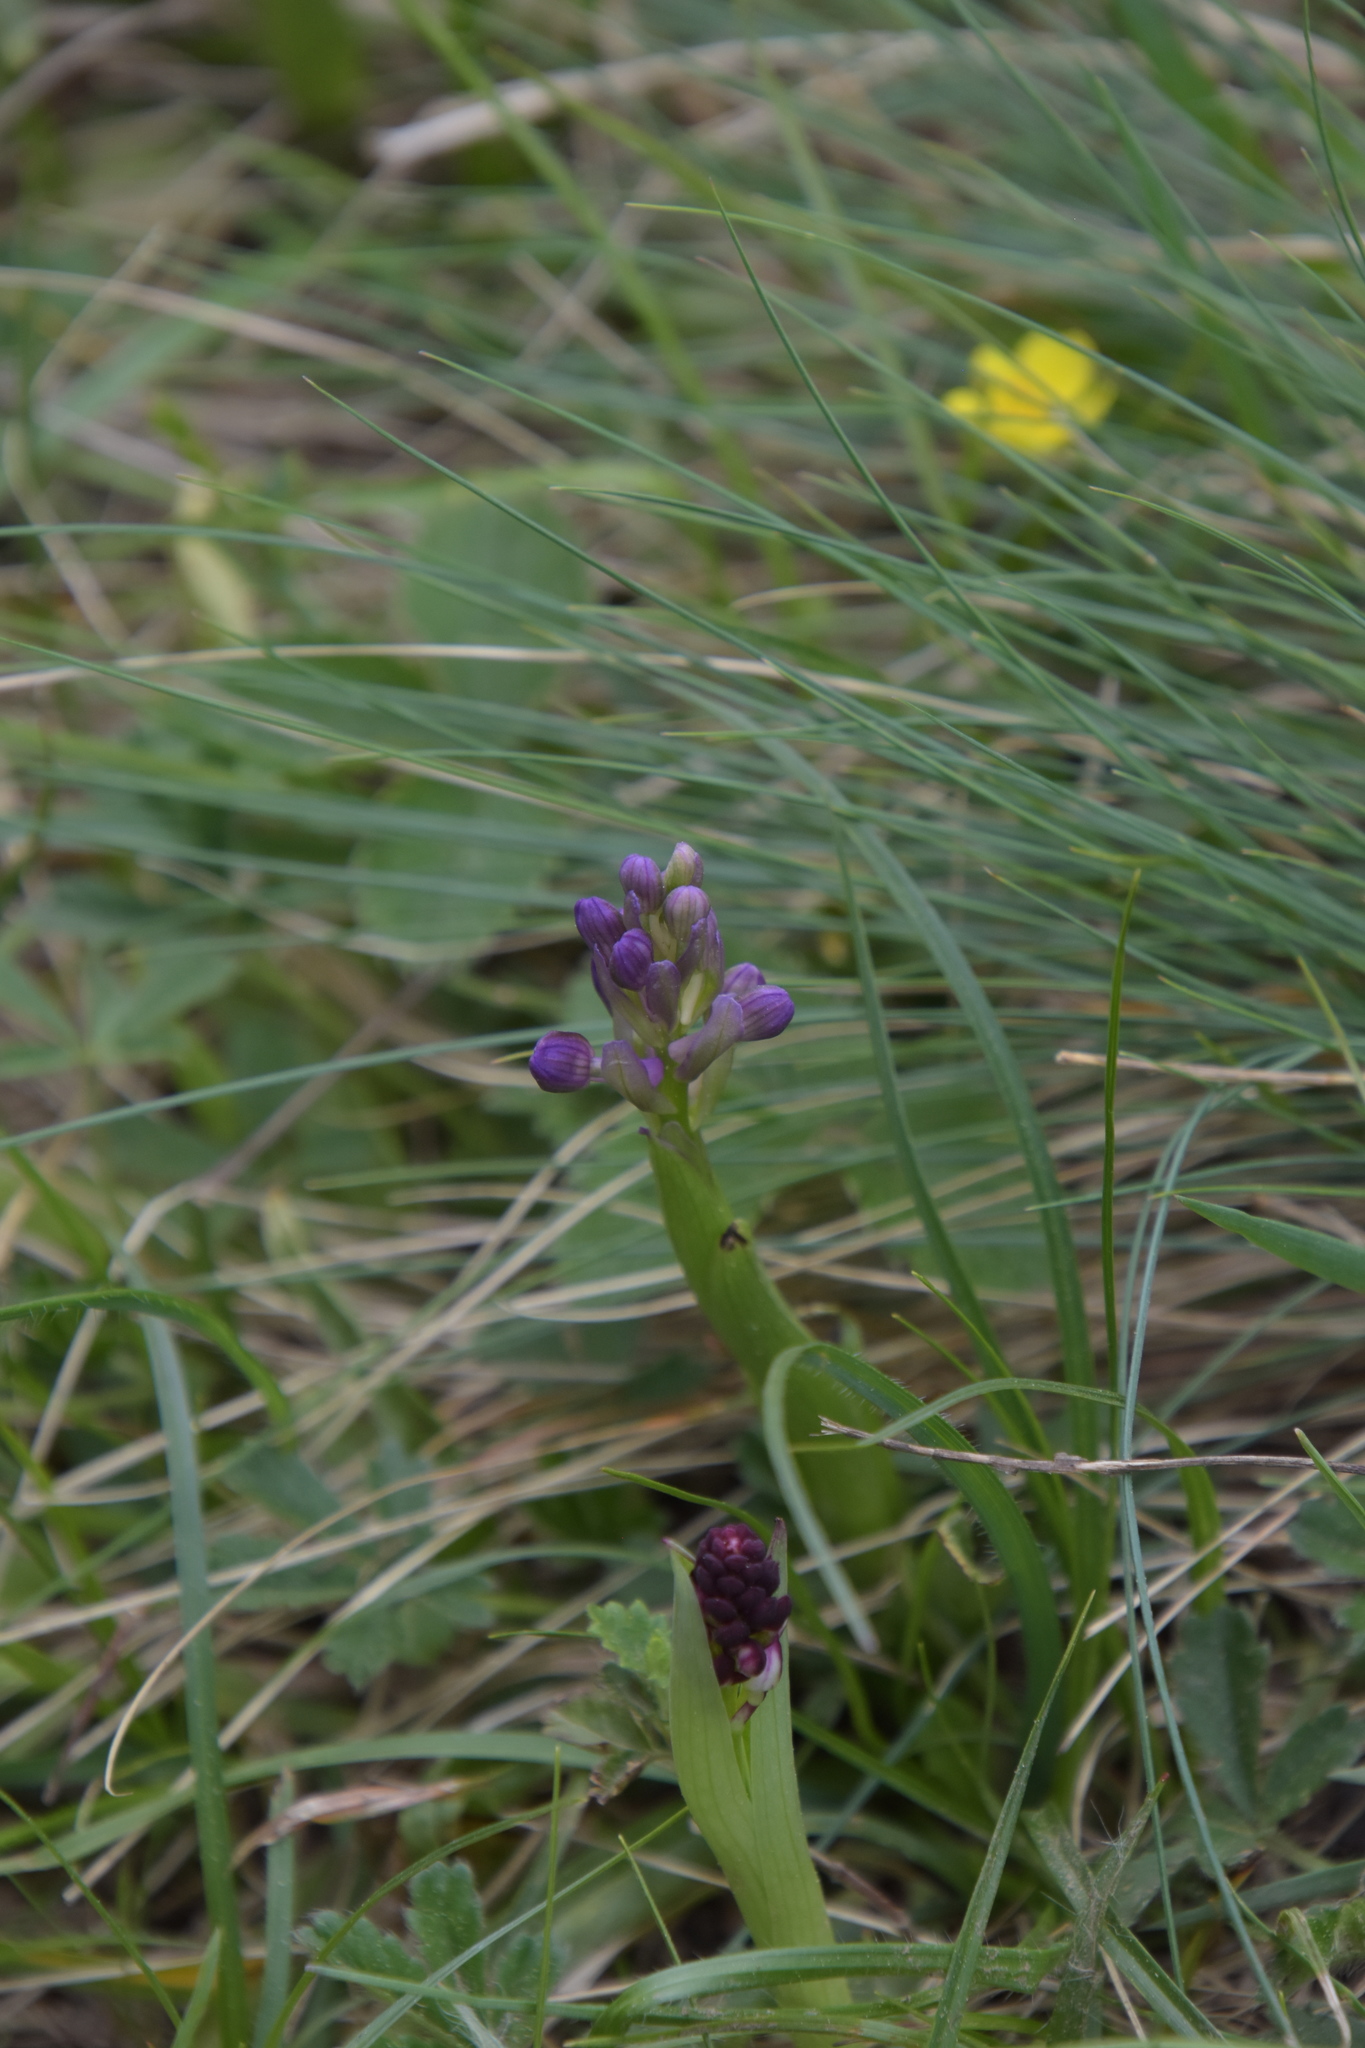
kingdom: Plantae
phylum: Tracheophyta
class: Liliopsida
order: Asparagales
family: Orchidaceae
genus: Anacamptis
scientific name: Anacamptis morio
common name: Green-winged orchid
